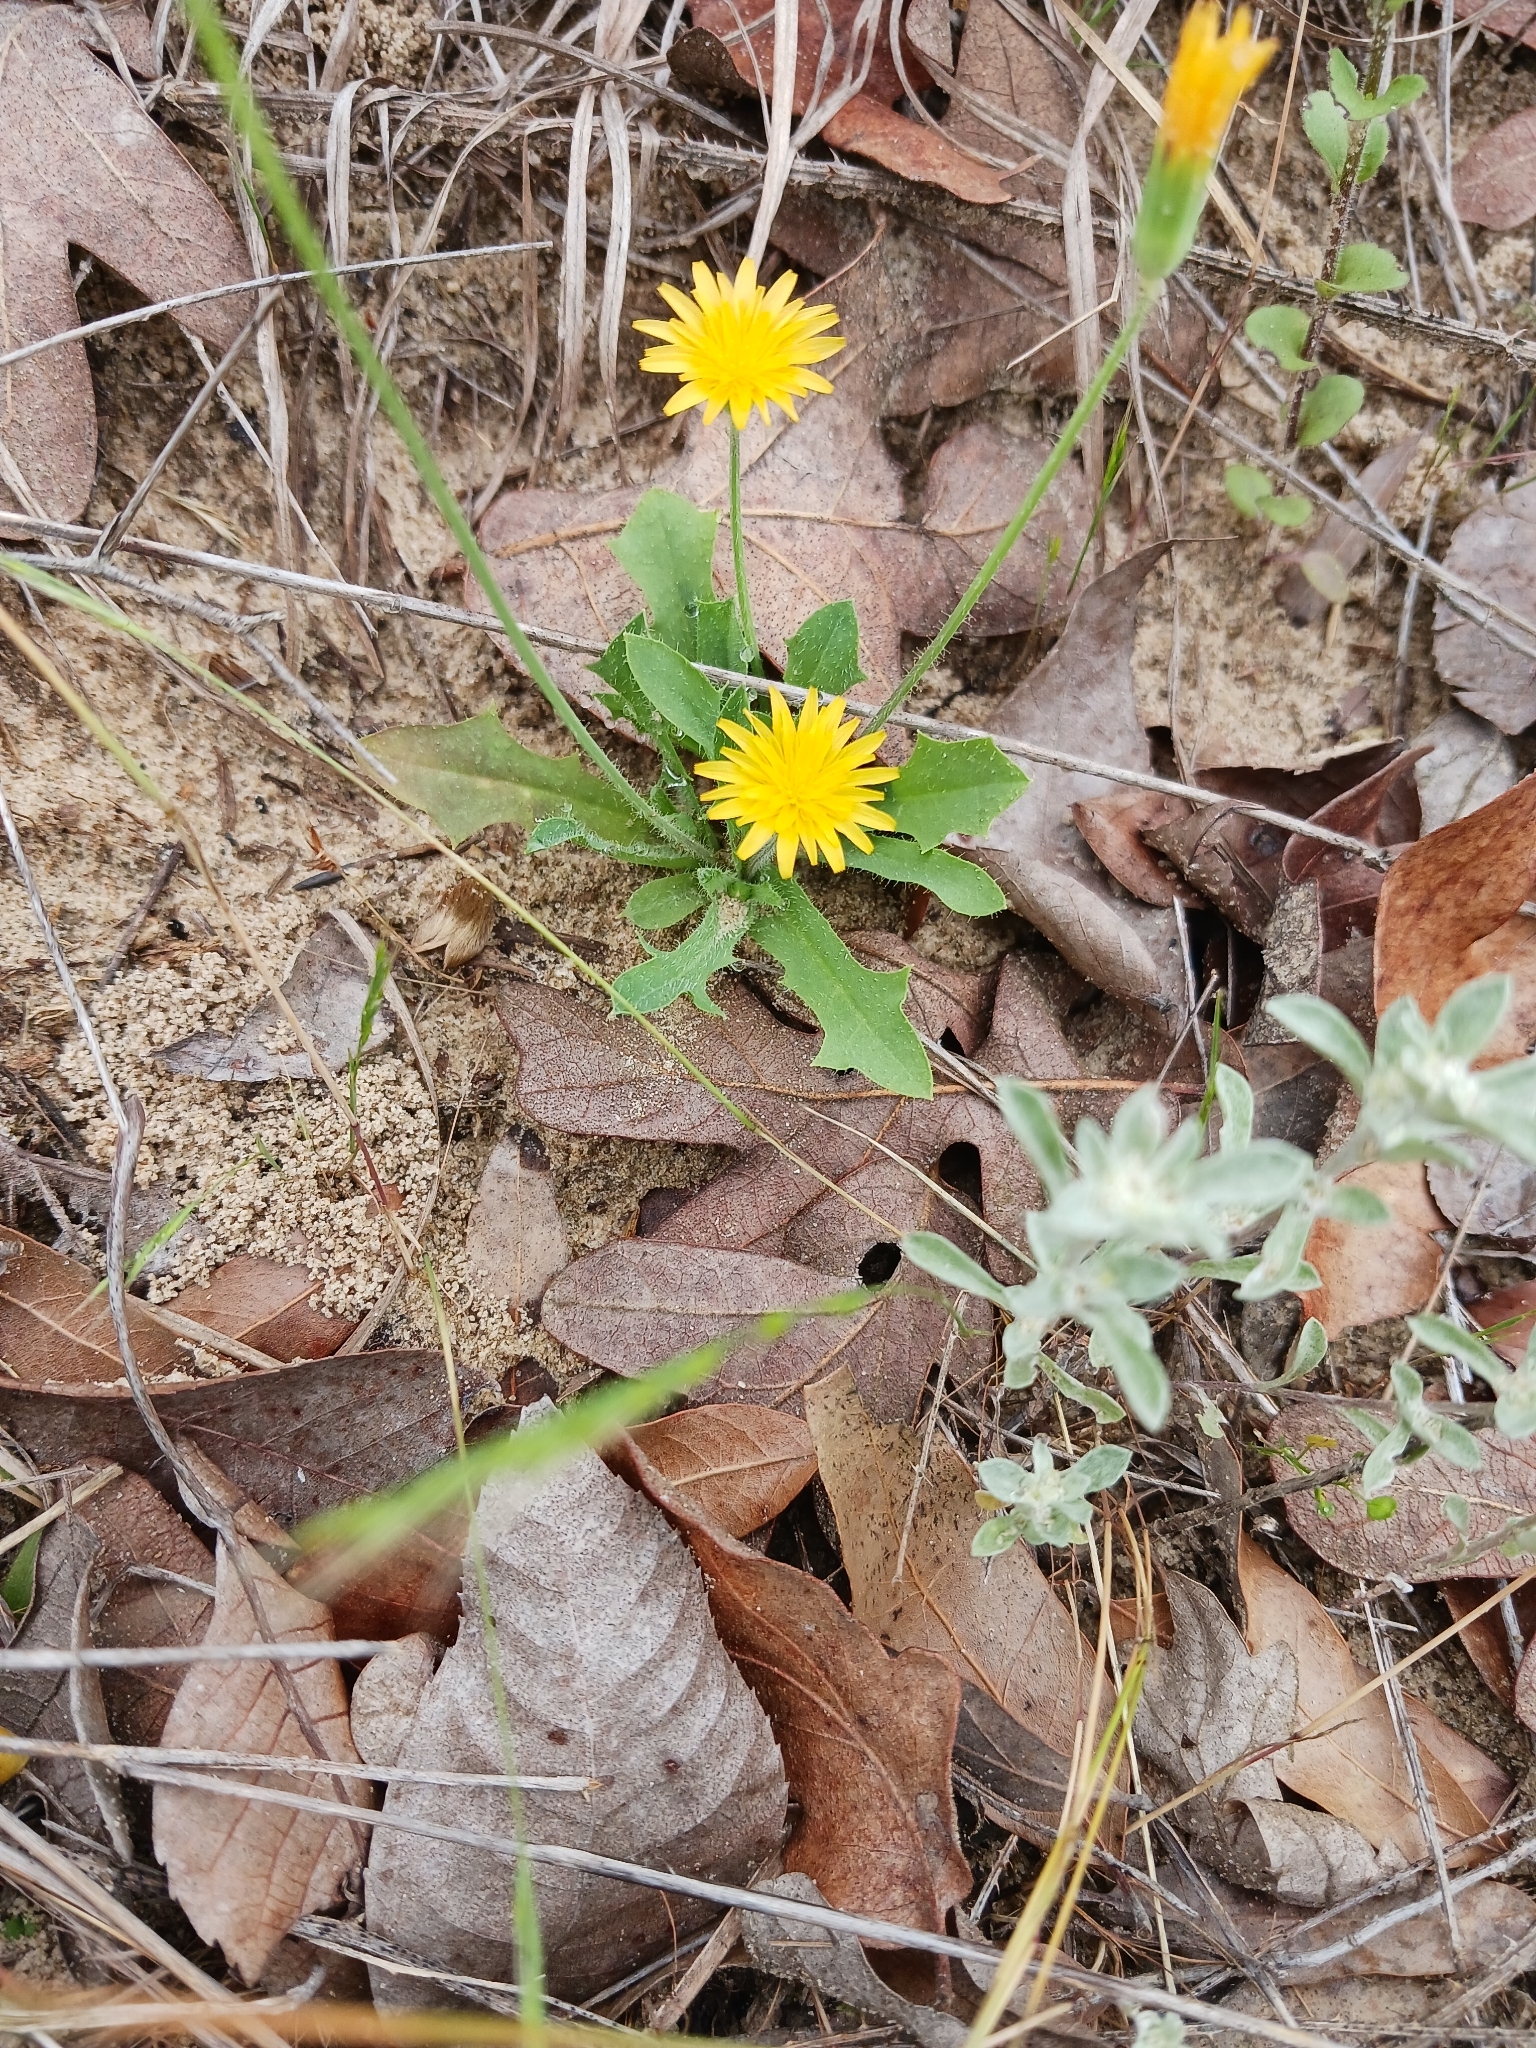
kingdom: Plantae
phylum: Tracheophyta
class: Magnoliopsida
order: Asterales
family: Asteraceae
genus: Krigia
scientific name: Krigia virginica
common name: Virginia dwarf-dandelion
